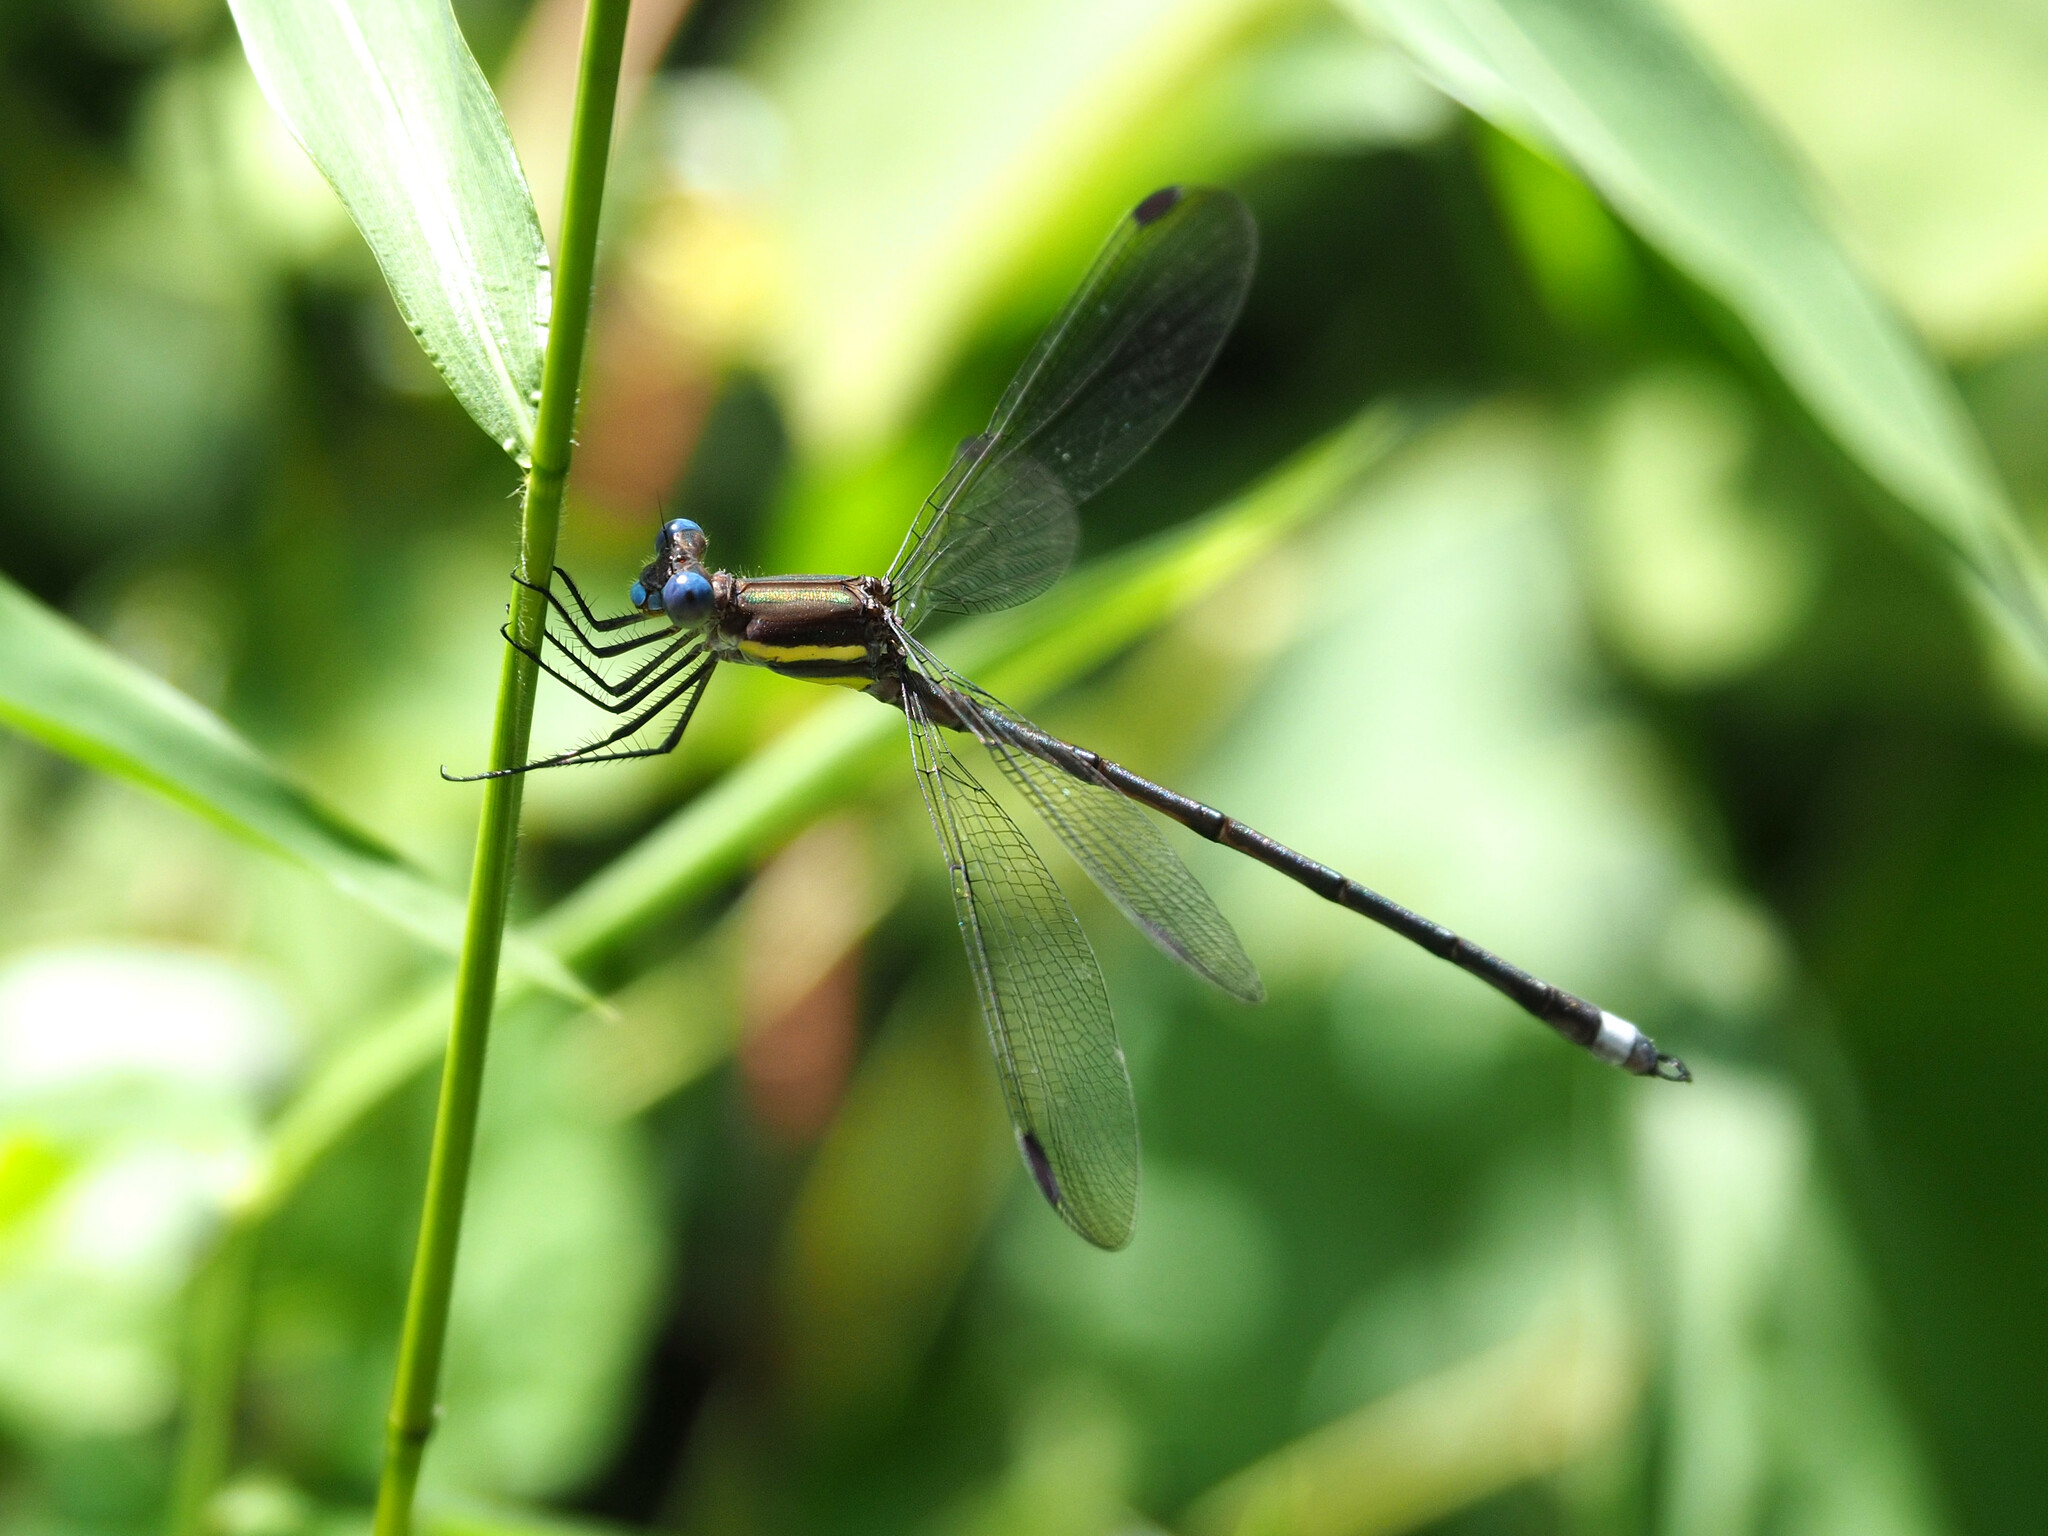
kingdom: Animalia
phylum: Arthropoda
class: Insecta
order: Odonata
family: Lestidae
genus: Archilestes
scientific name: Archilestes grandis
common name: Great spreadwing
